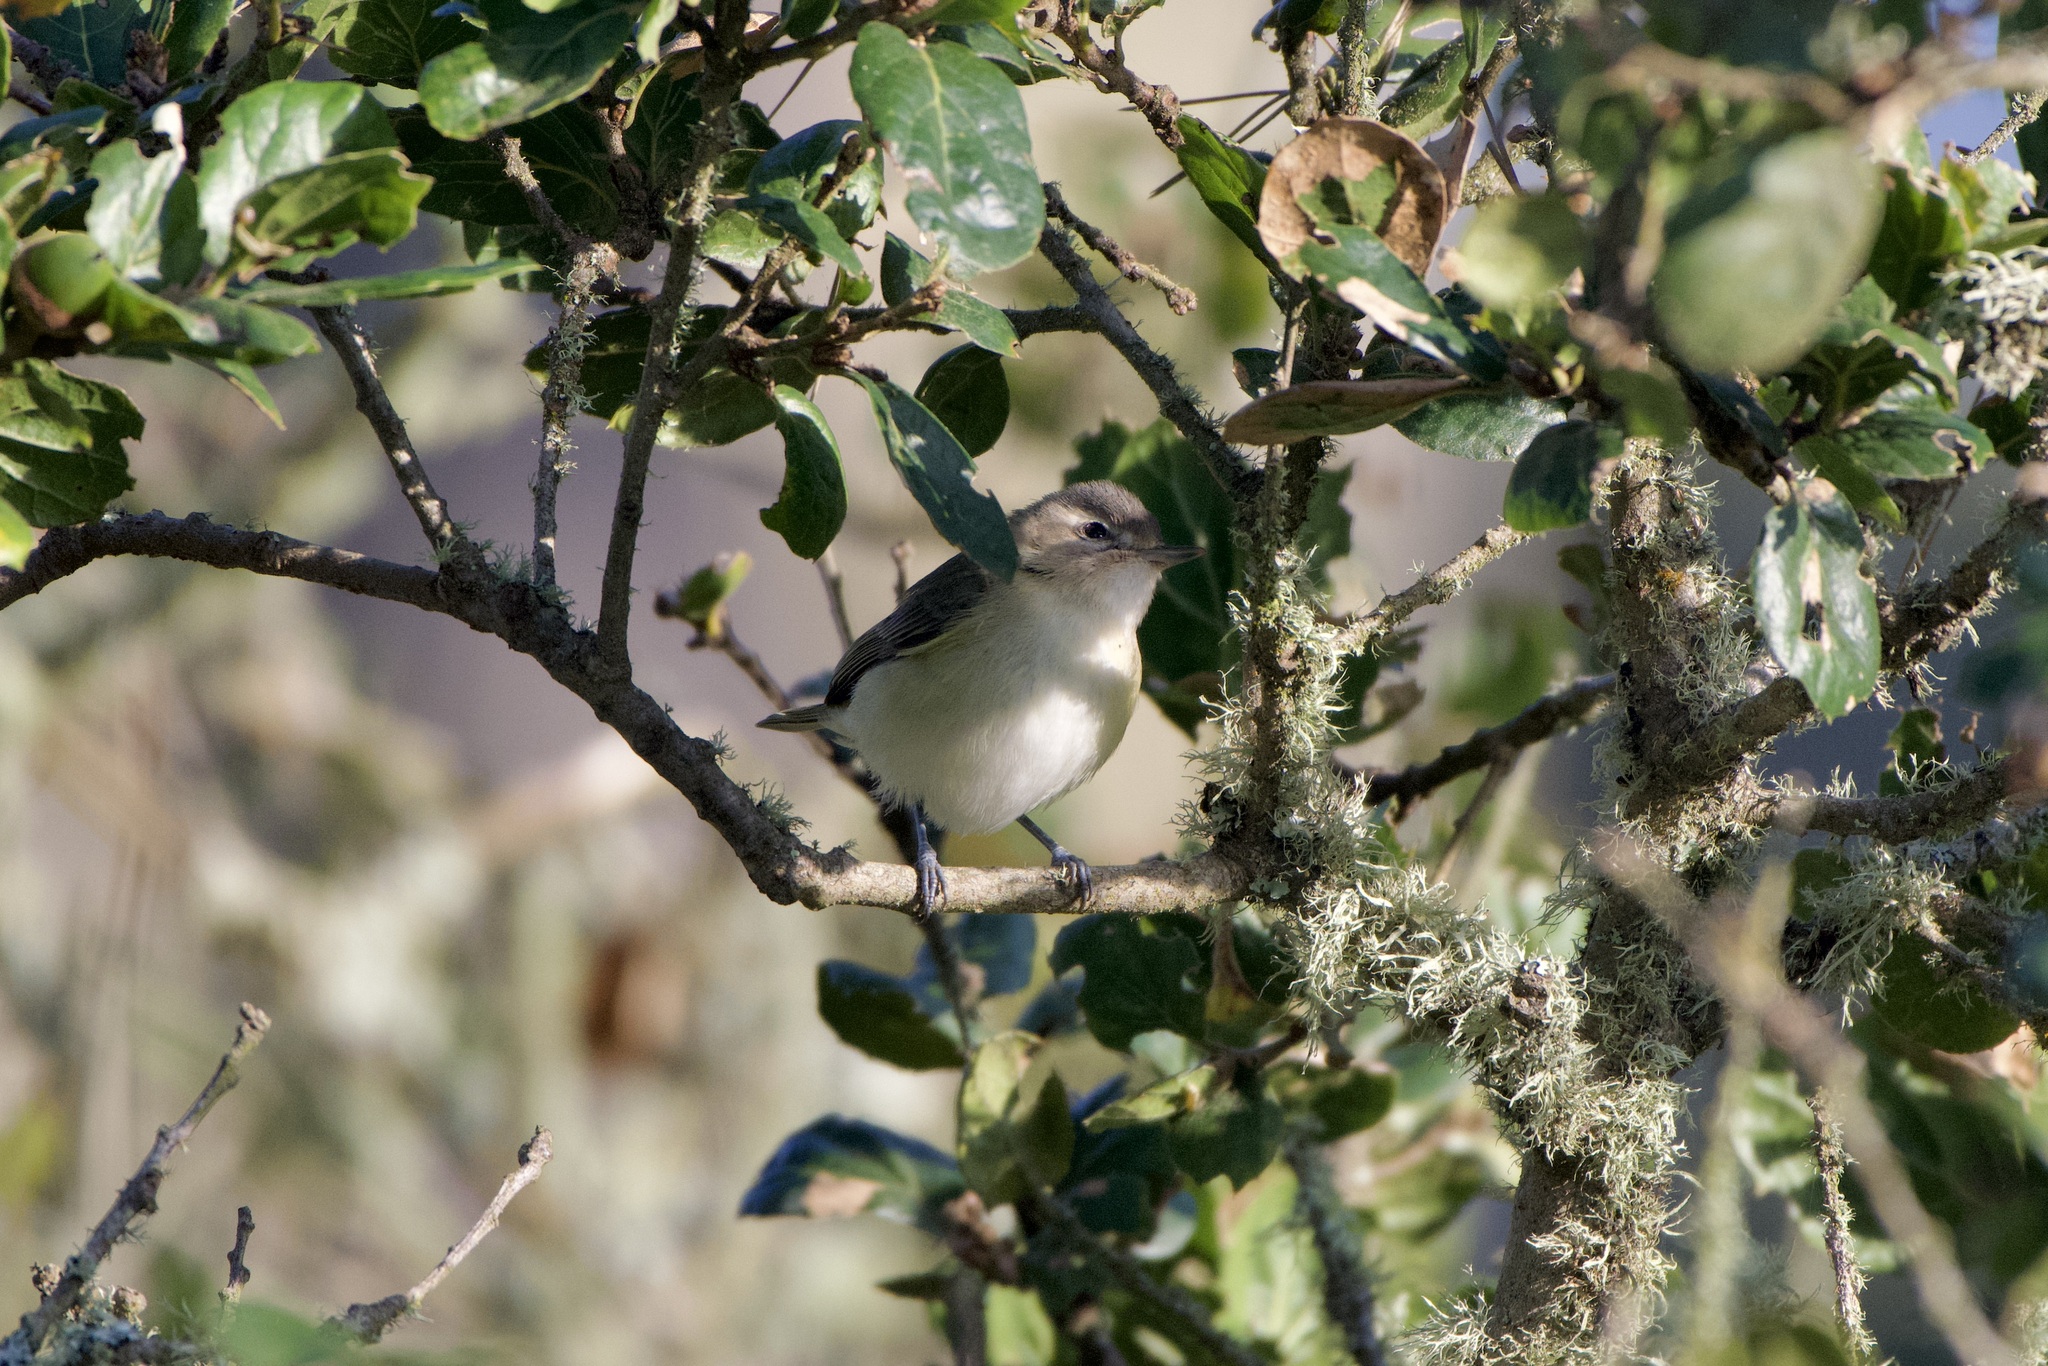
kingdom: Animalia
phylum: Chordata
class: Aves
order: Passeriformes
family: Vireonidae
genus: Vireo
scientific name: Vireo gilvus
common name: Warbling vireo
